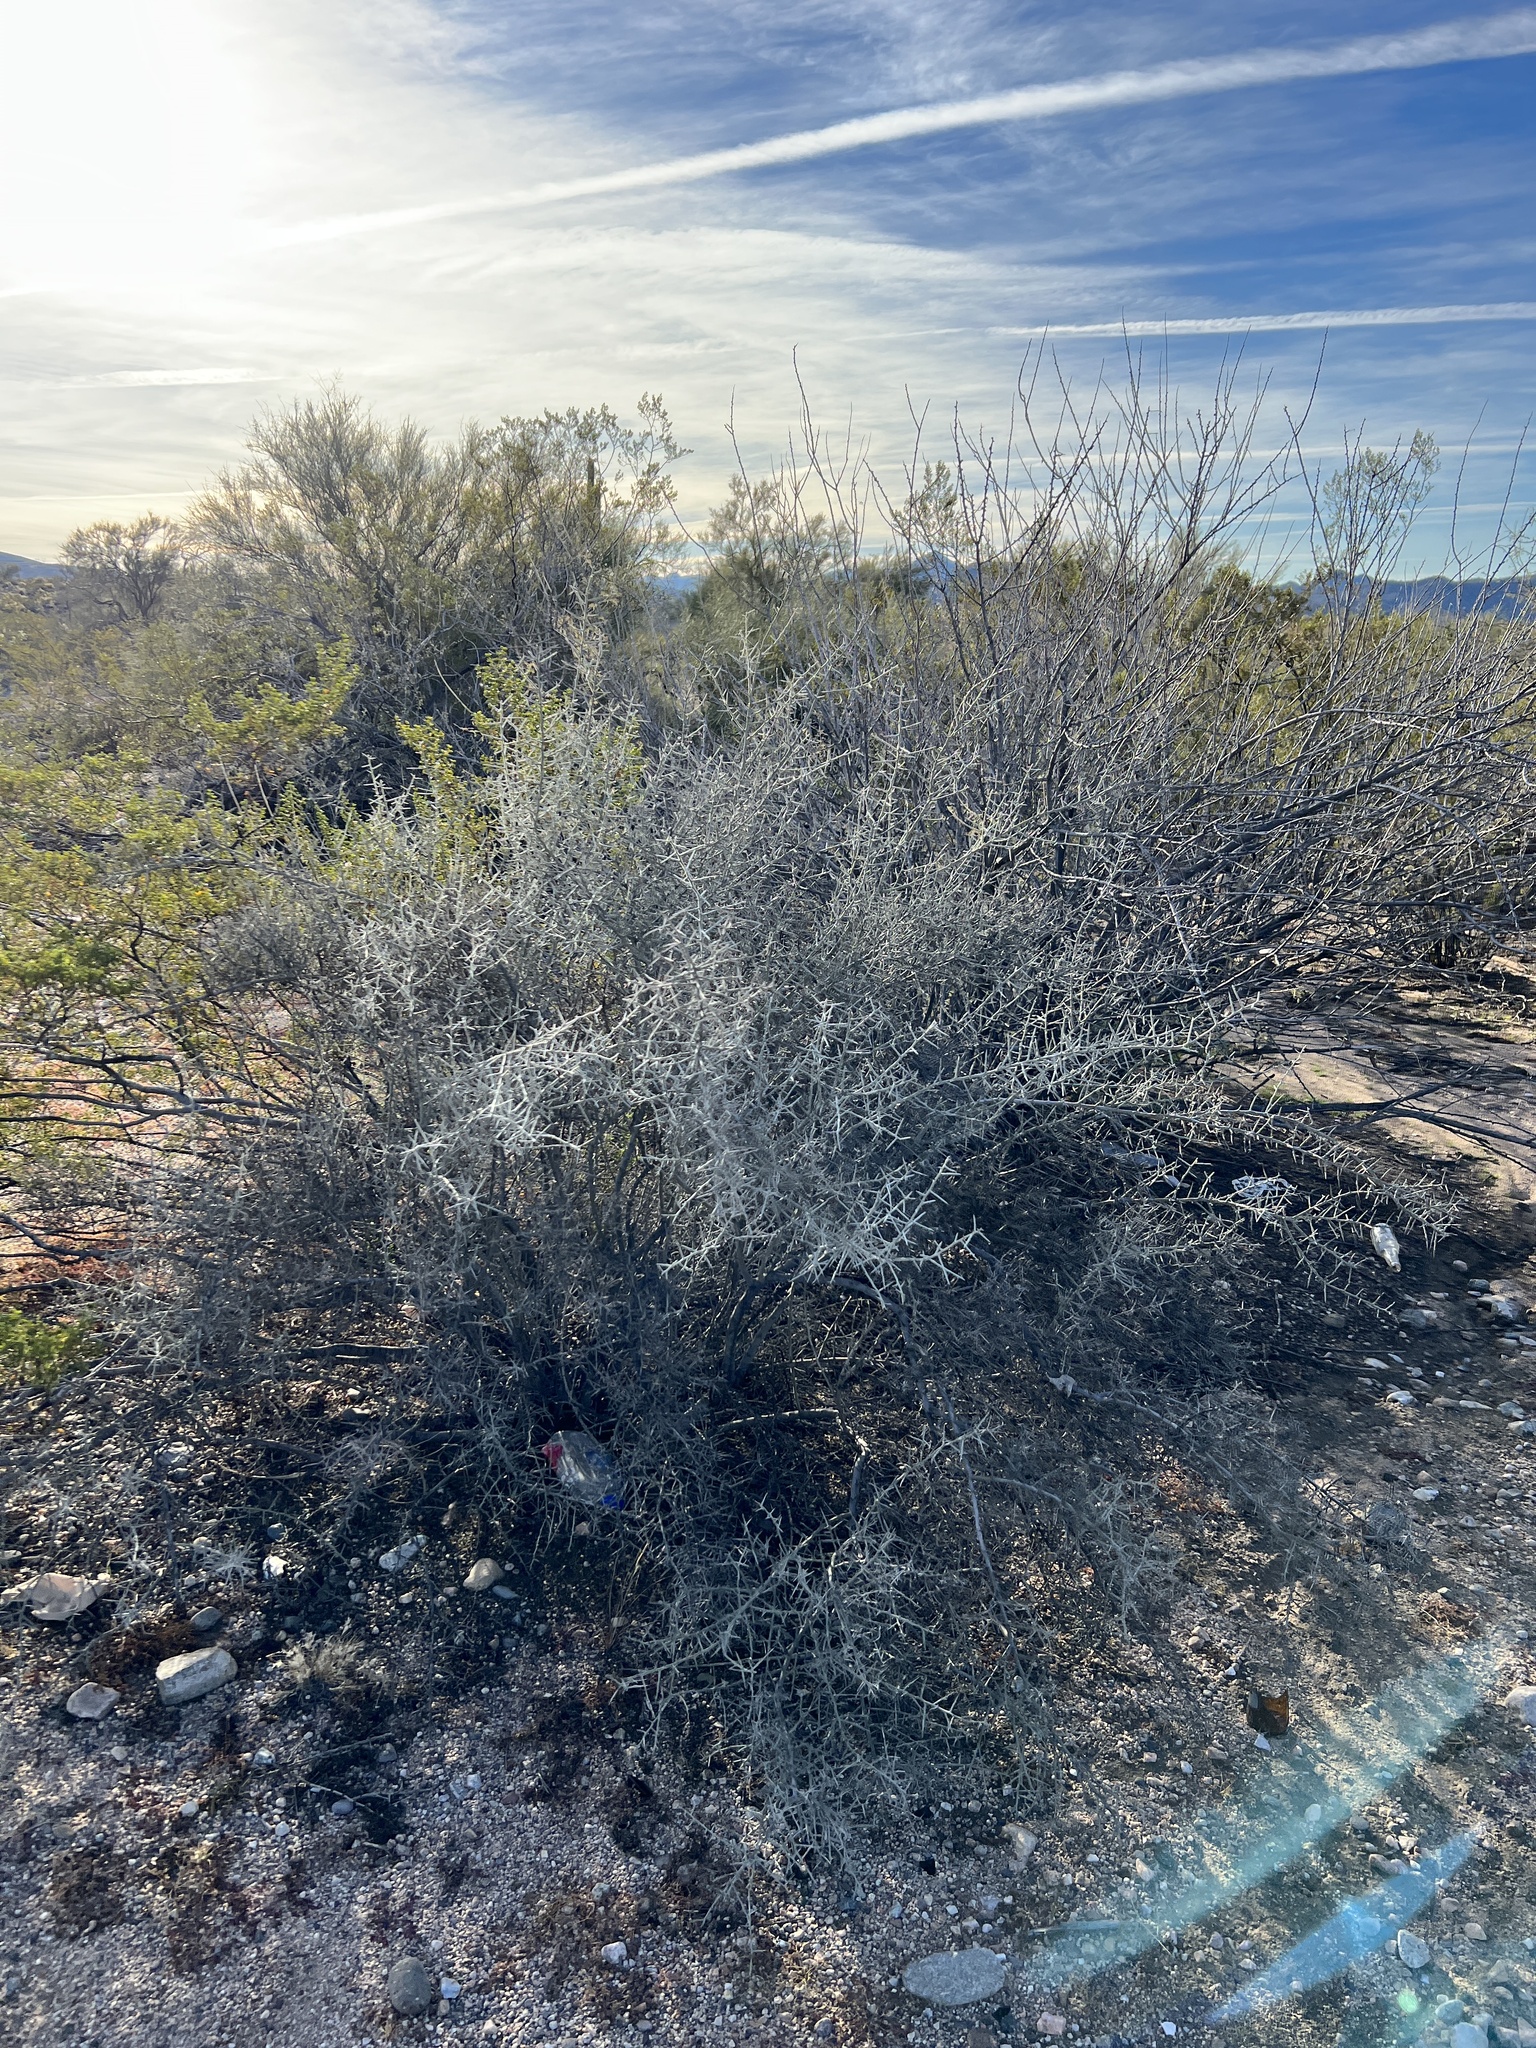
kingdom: Plantae
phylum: Tracheophyta
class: Magnoliopsida
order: Rosales
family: Rhamnaceae
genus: Sarcomphalus
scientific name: Sarcomphalus obtusifolius
